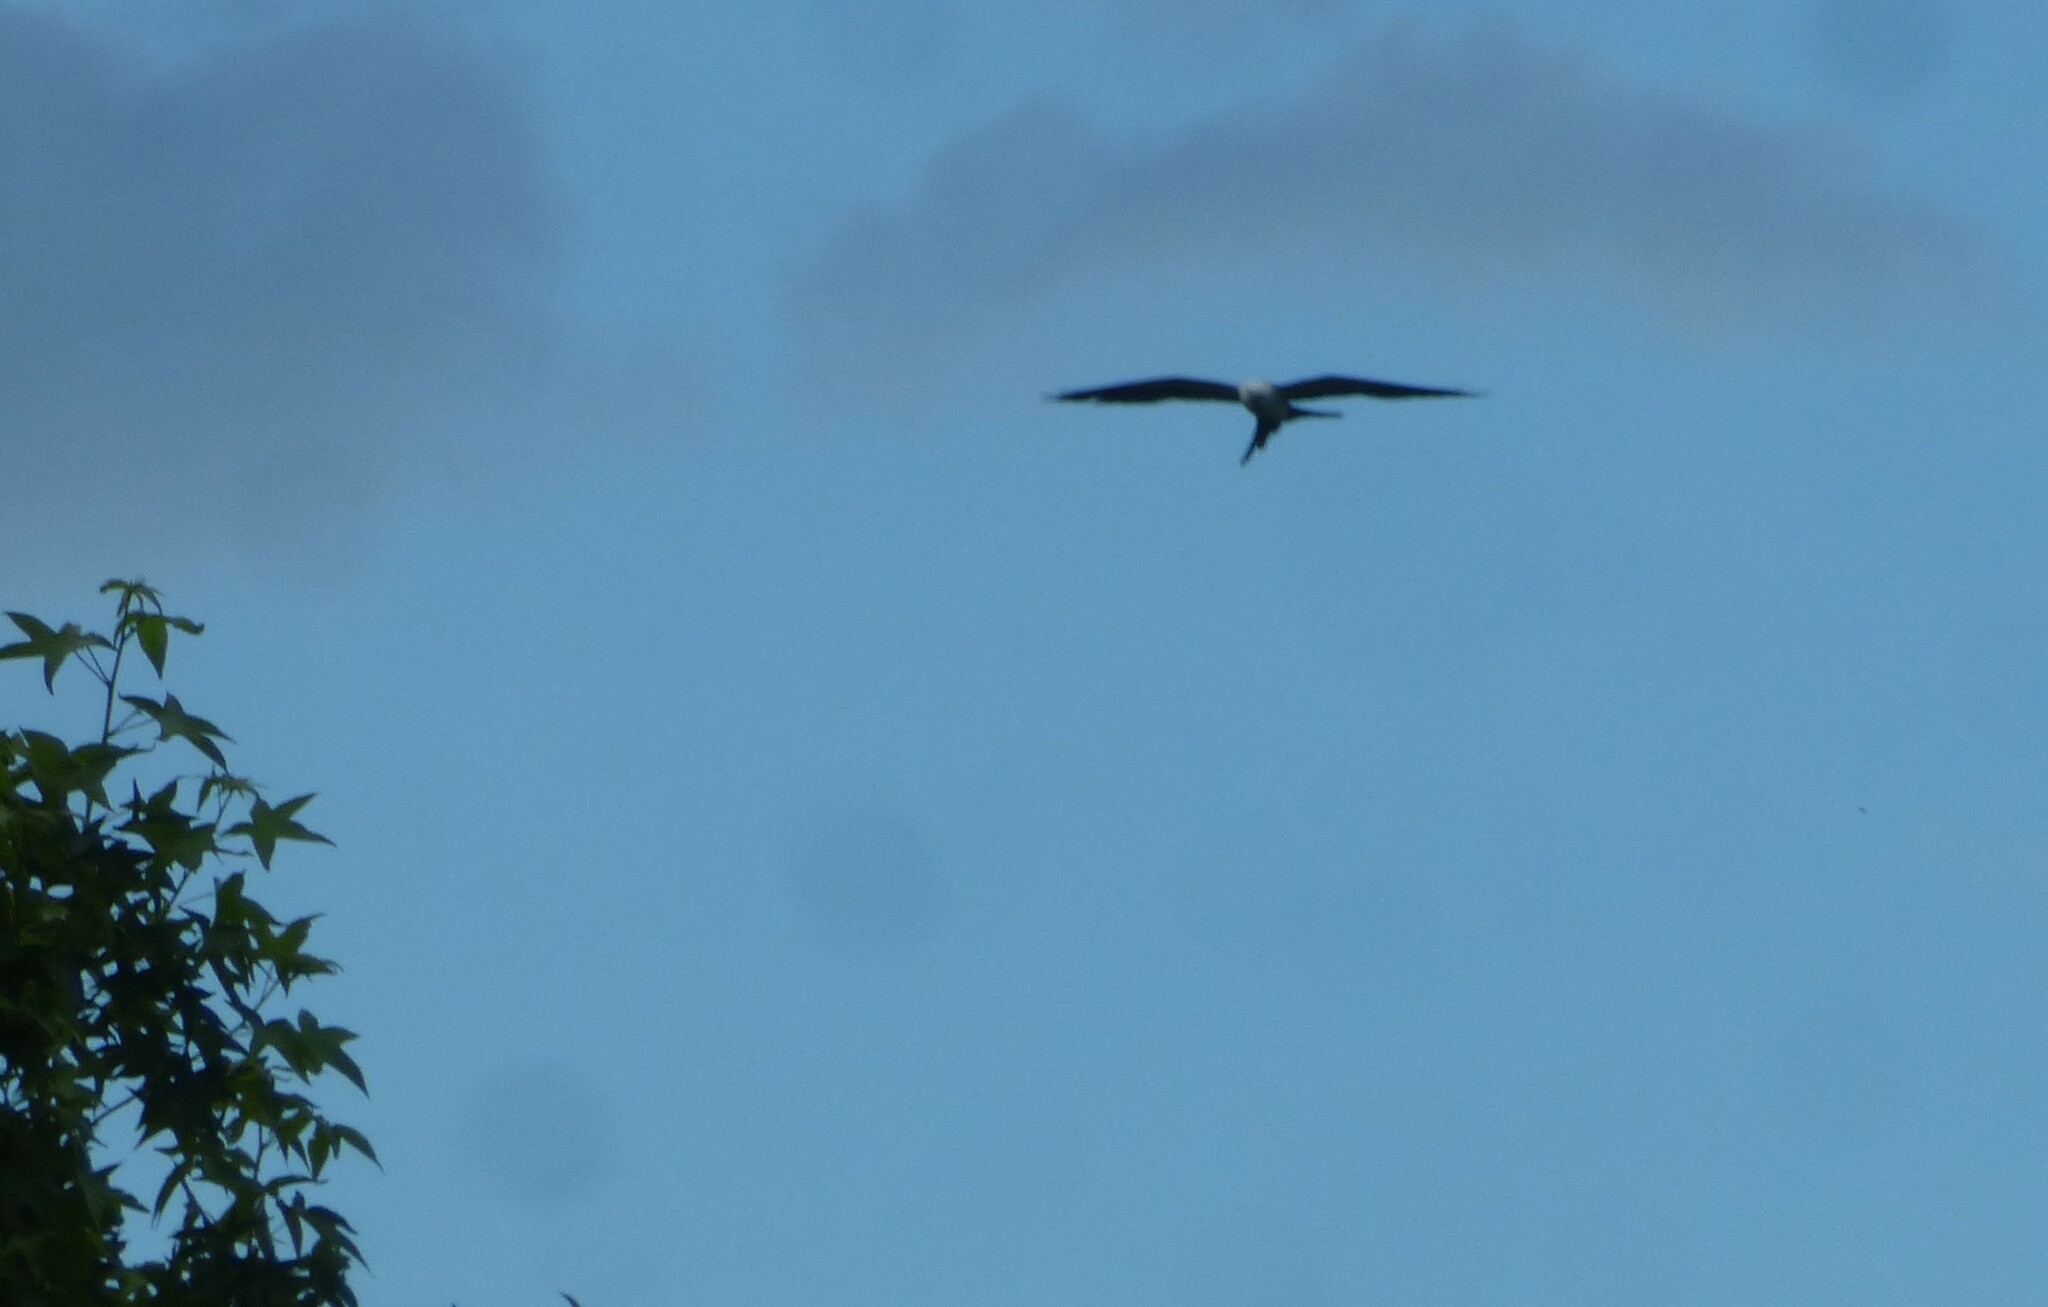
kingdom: Animalia
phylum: Chordata
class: Aves
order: Accipitriformes
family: Accipitridae
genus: Elanoides
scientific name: Elanoides forficatus
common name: Swallow-tailed kite
